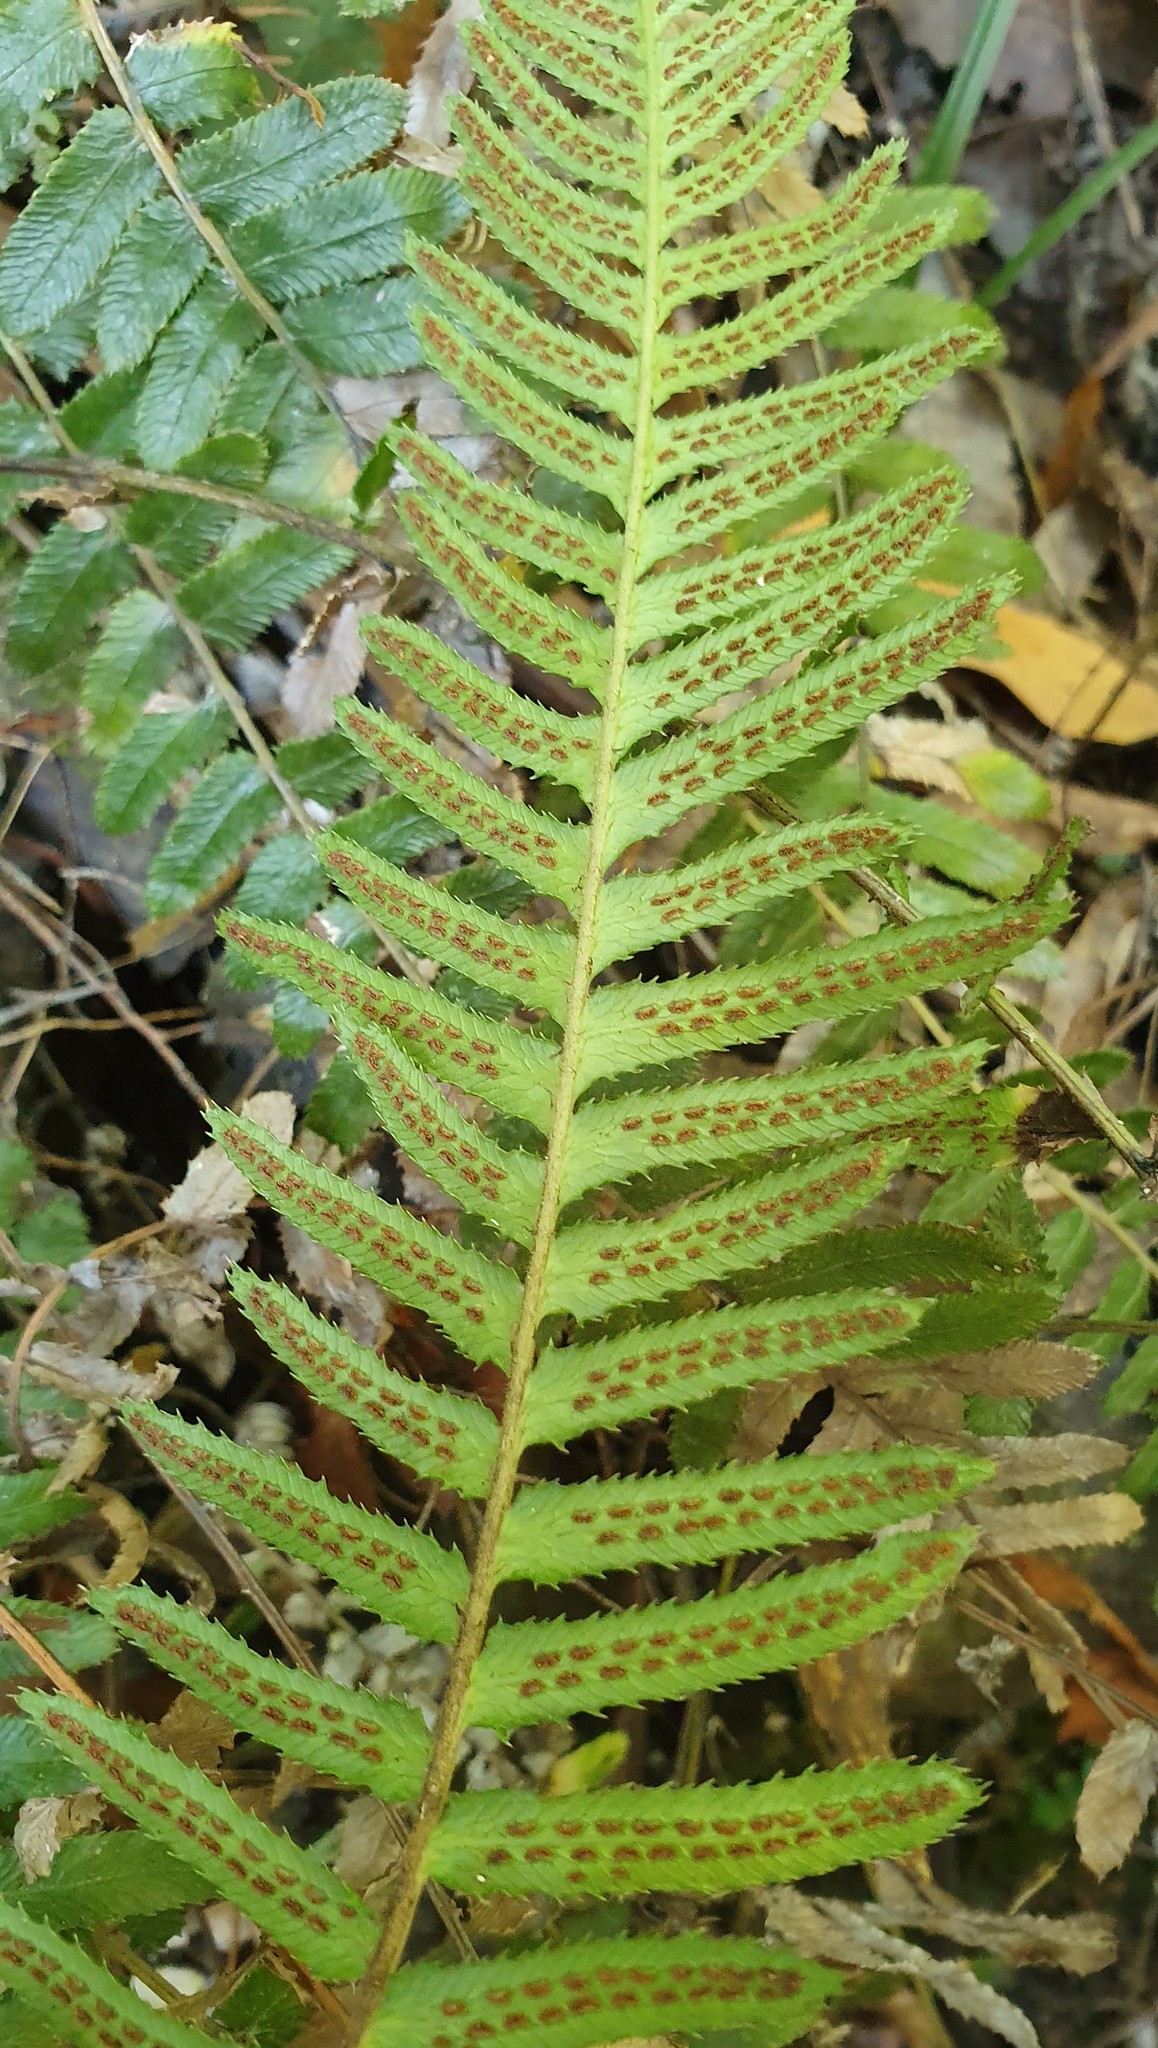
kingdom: Plantae
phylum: Tracheophyta
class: Polypodiopsida
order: Polypodiales
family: Blechnaceae
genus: Doodia
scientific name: Doodia australis
